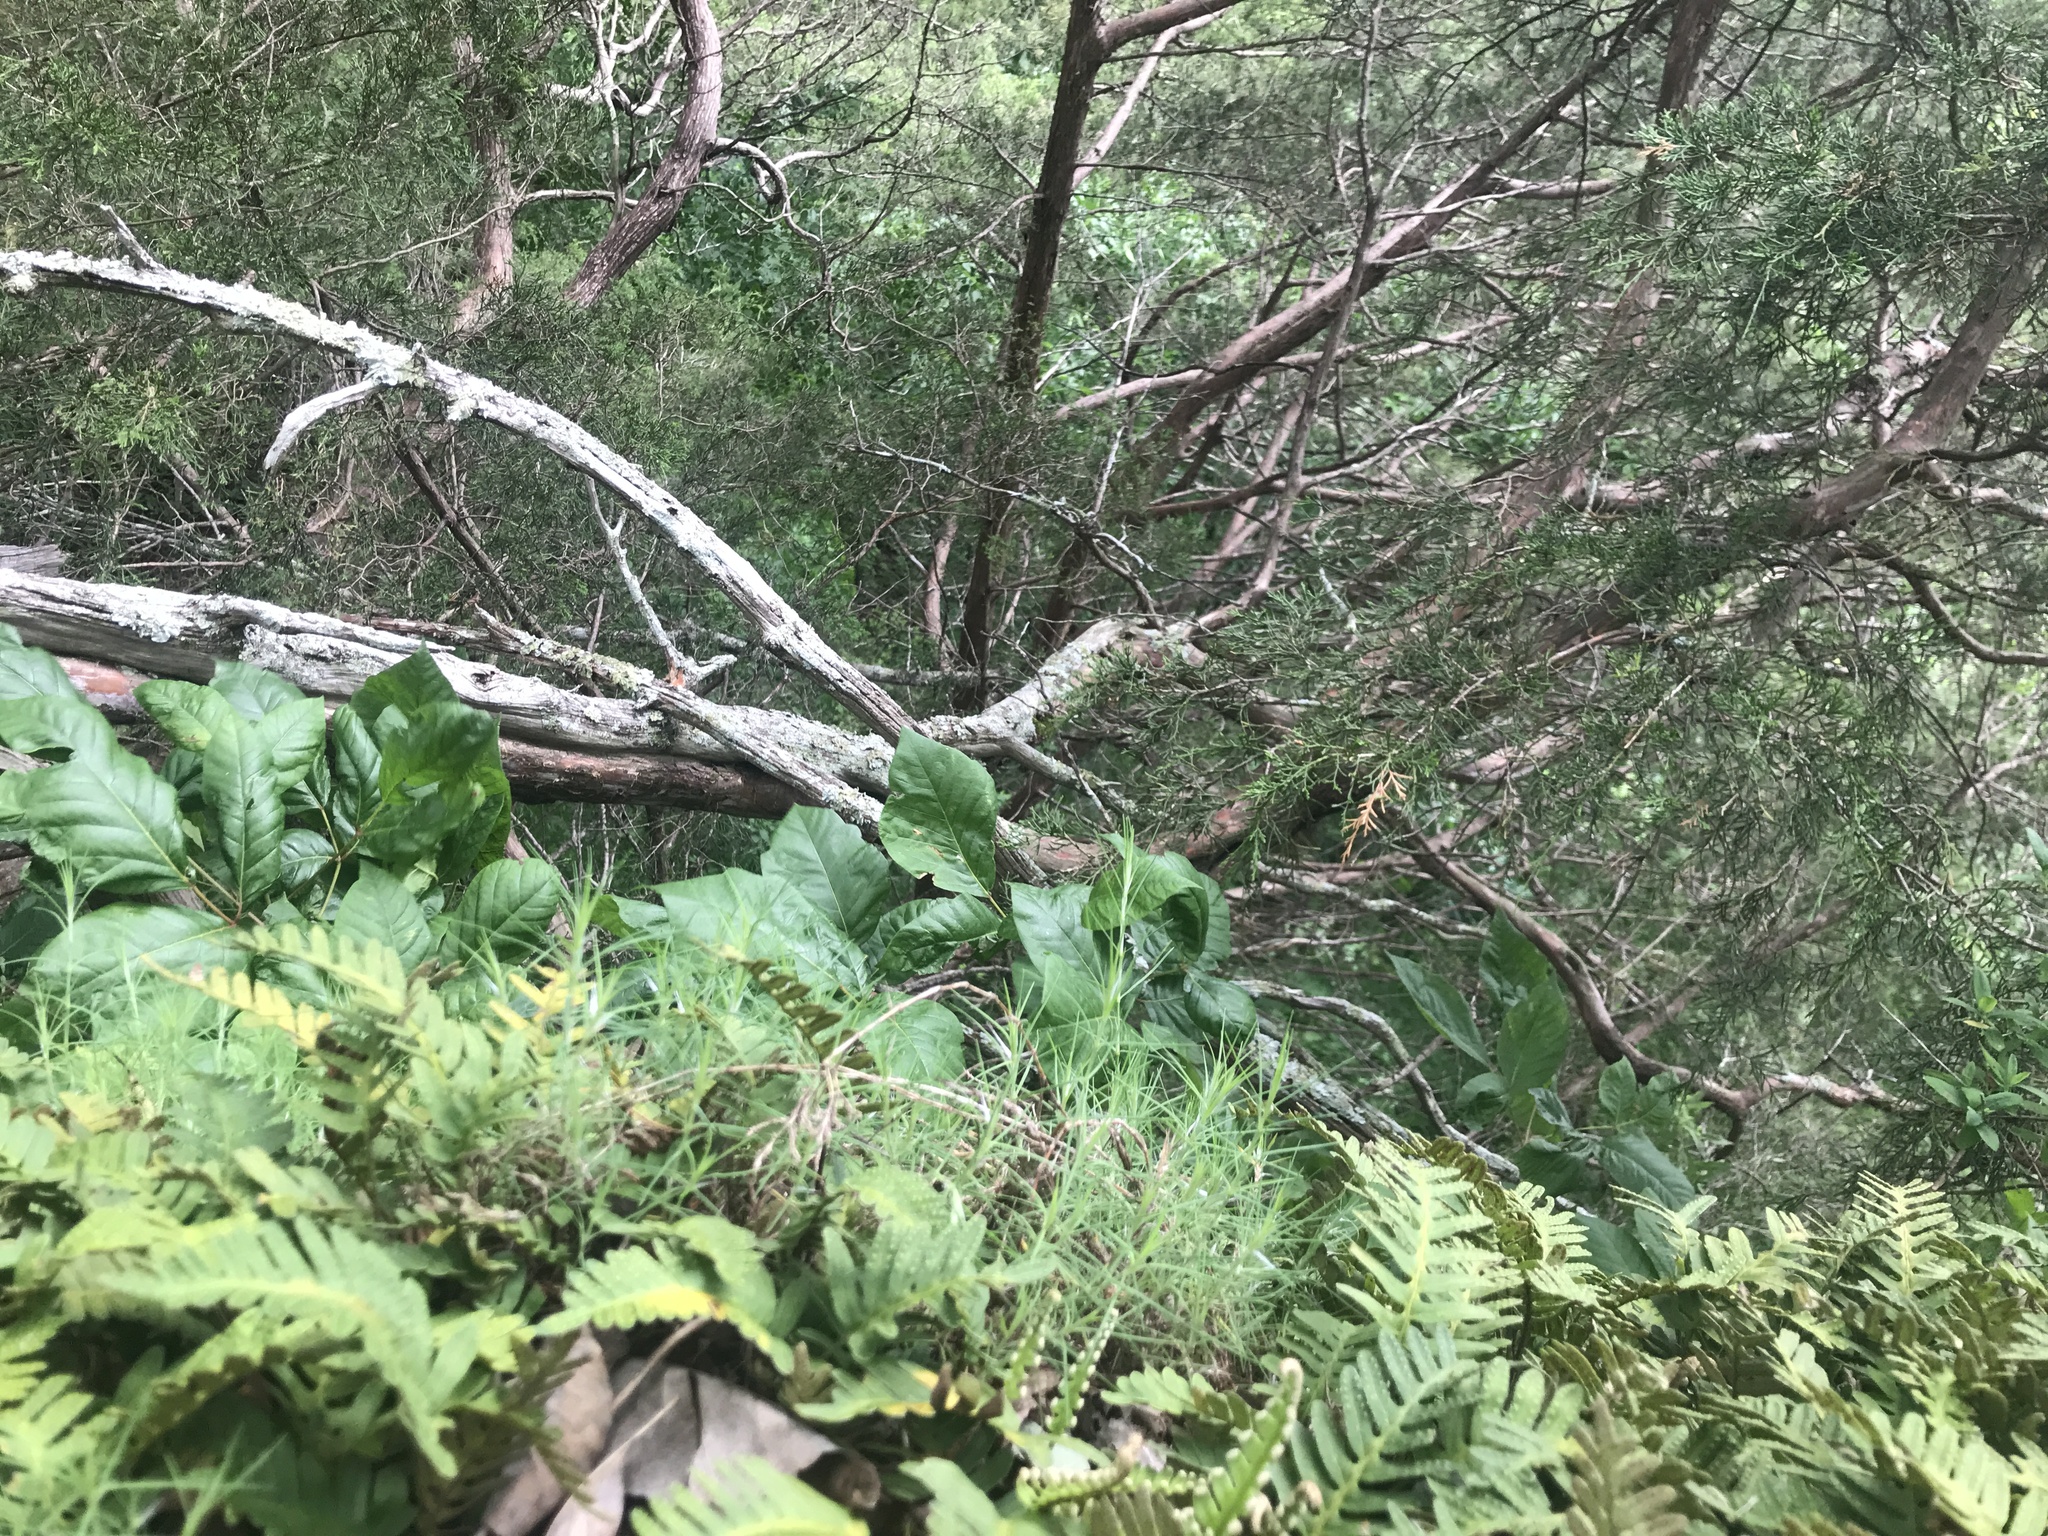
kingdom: Plantae
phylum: Tracheophyta
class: Polypodiopsida
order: Polypodiales
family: Polypodiaceae
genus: Pleopeltis
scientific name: Pleopeltis michauxiana
